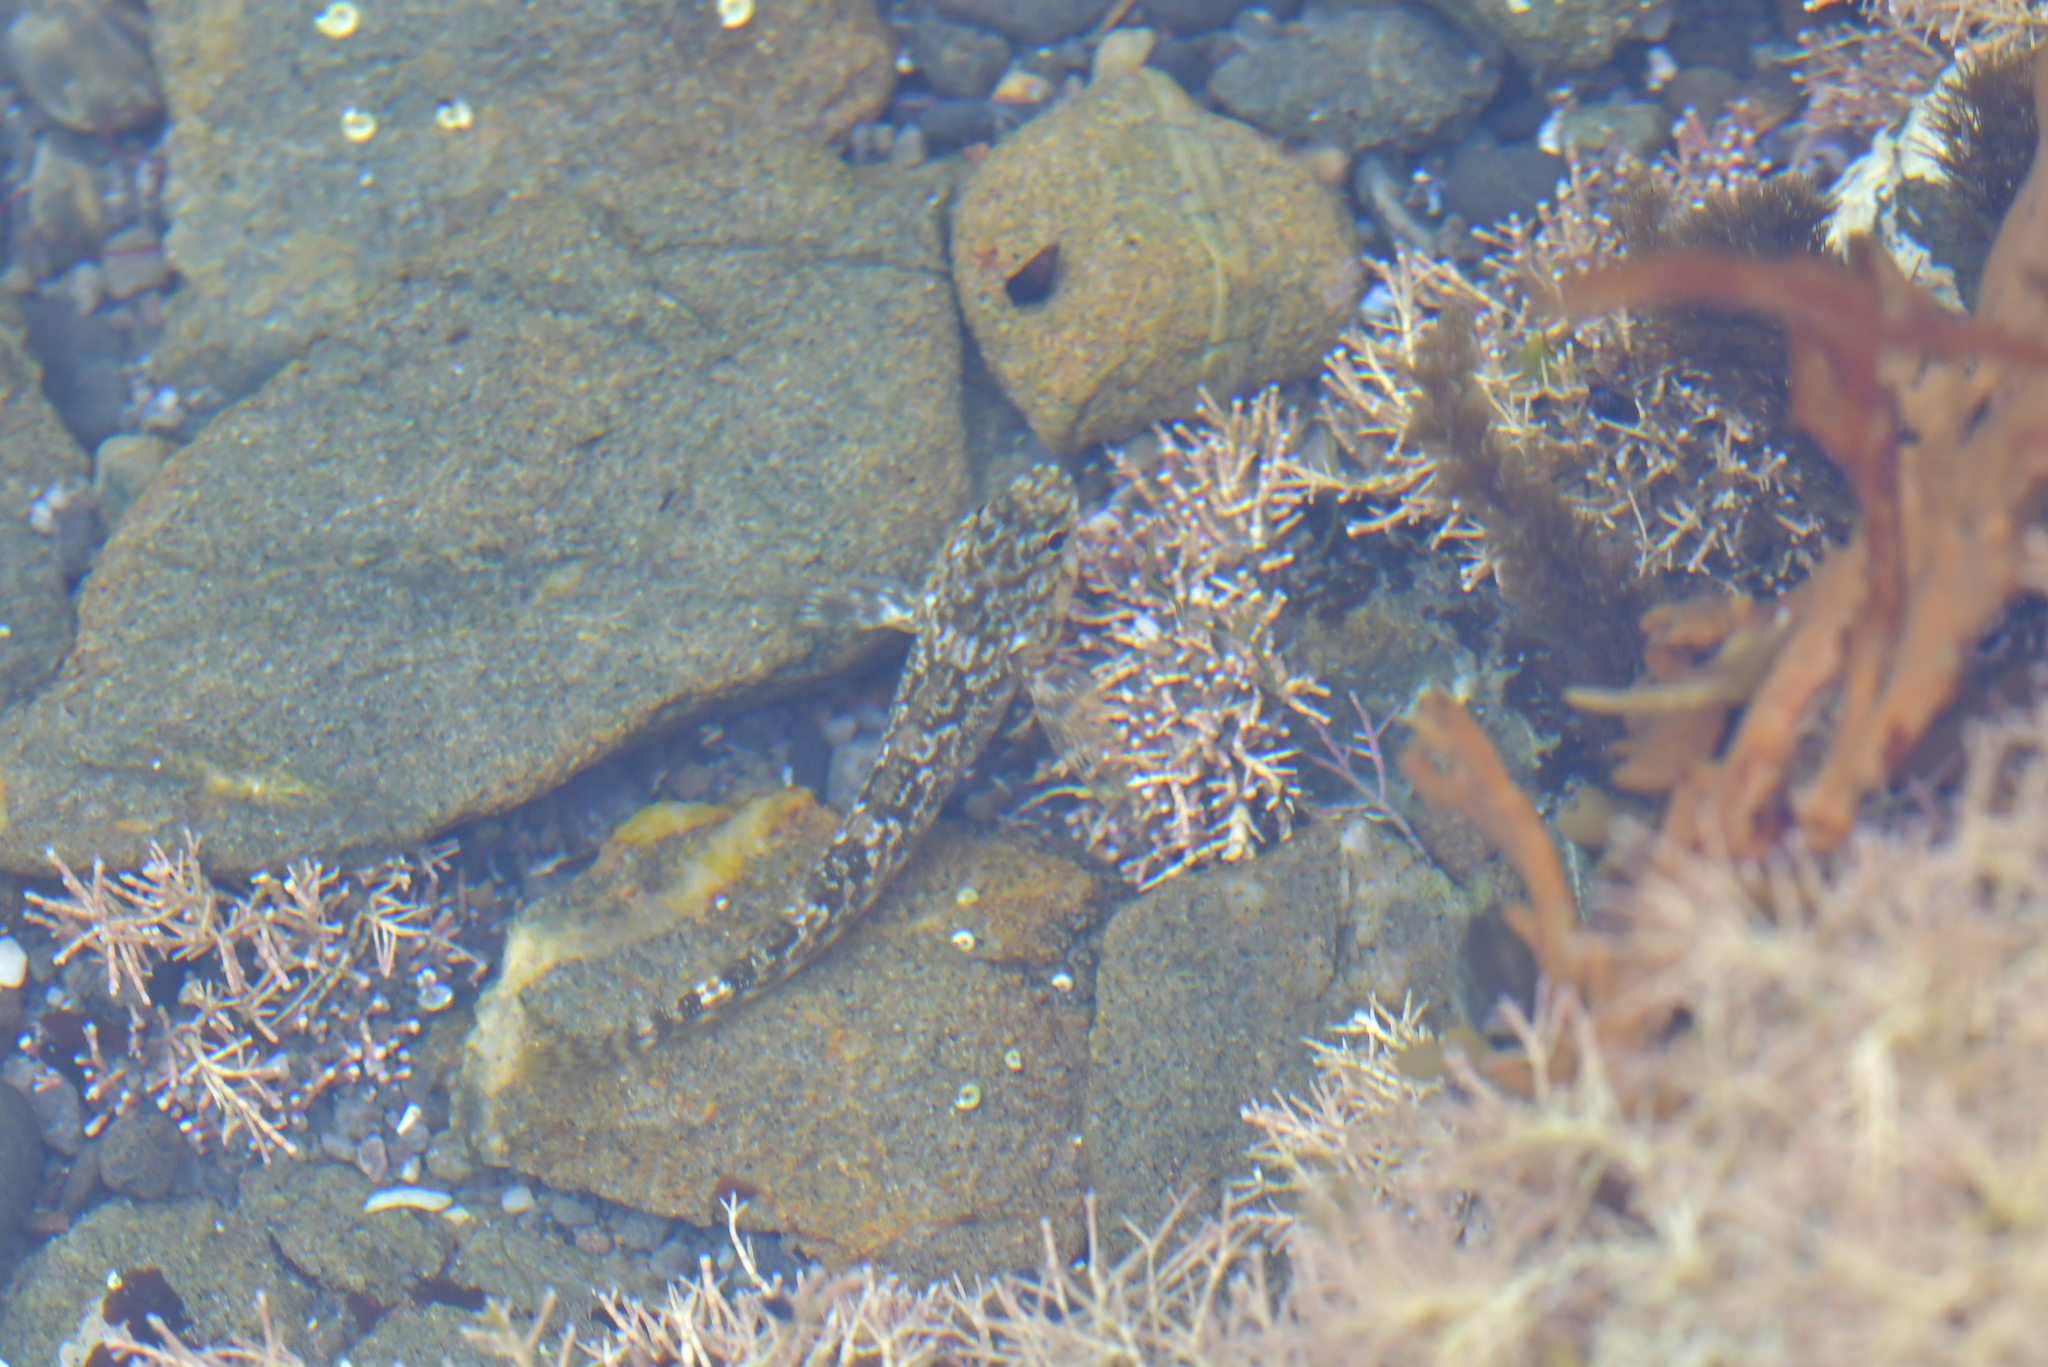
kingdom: Animalia
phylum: Chordata
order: Perciformes
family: Tripterygiidae
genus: Bellapiscis
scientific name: Bellapiscis medius
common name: Twister
